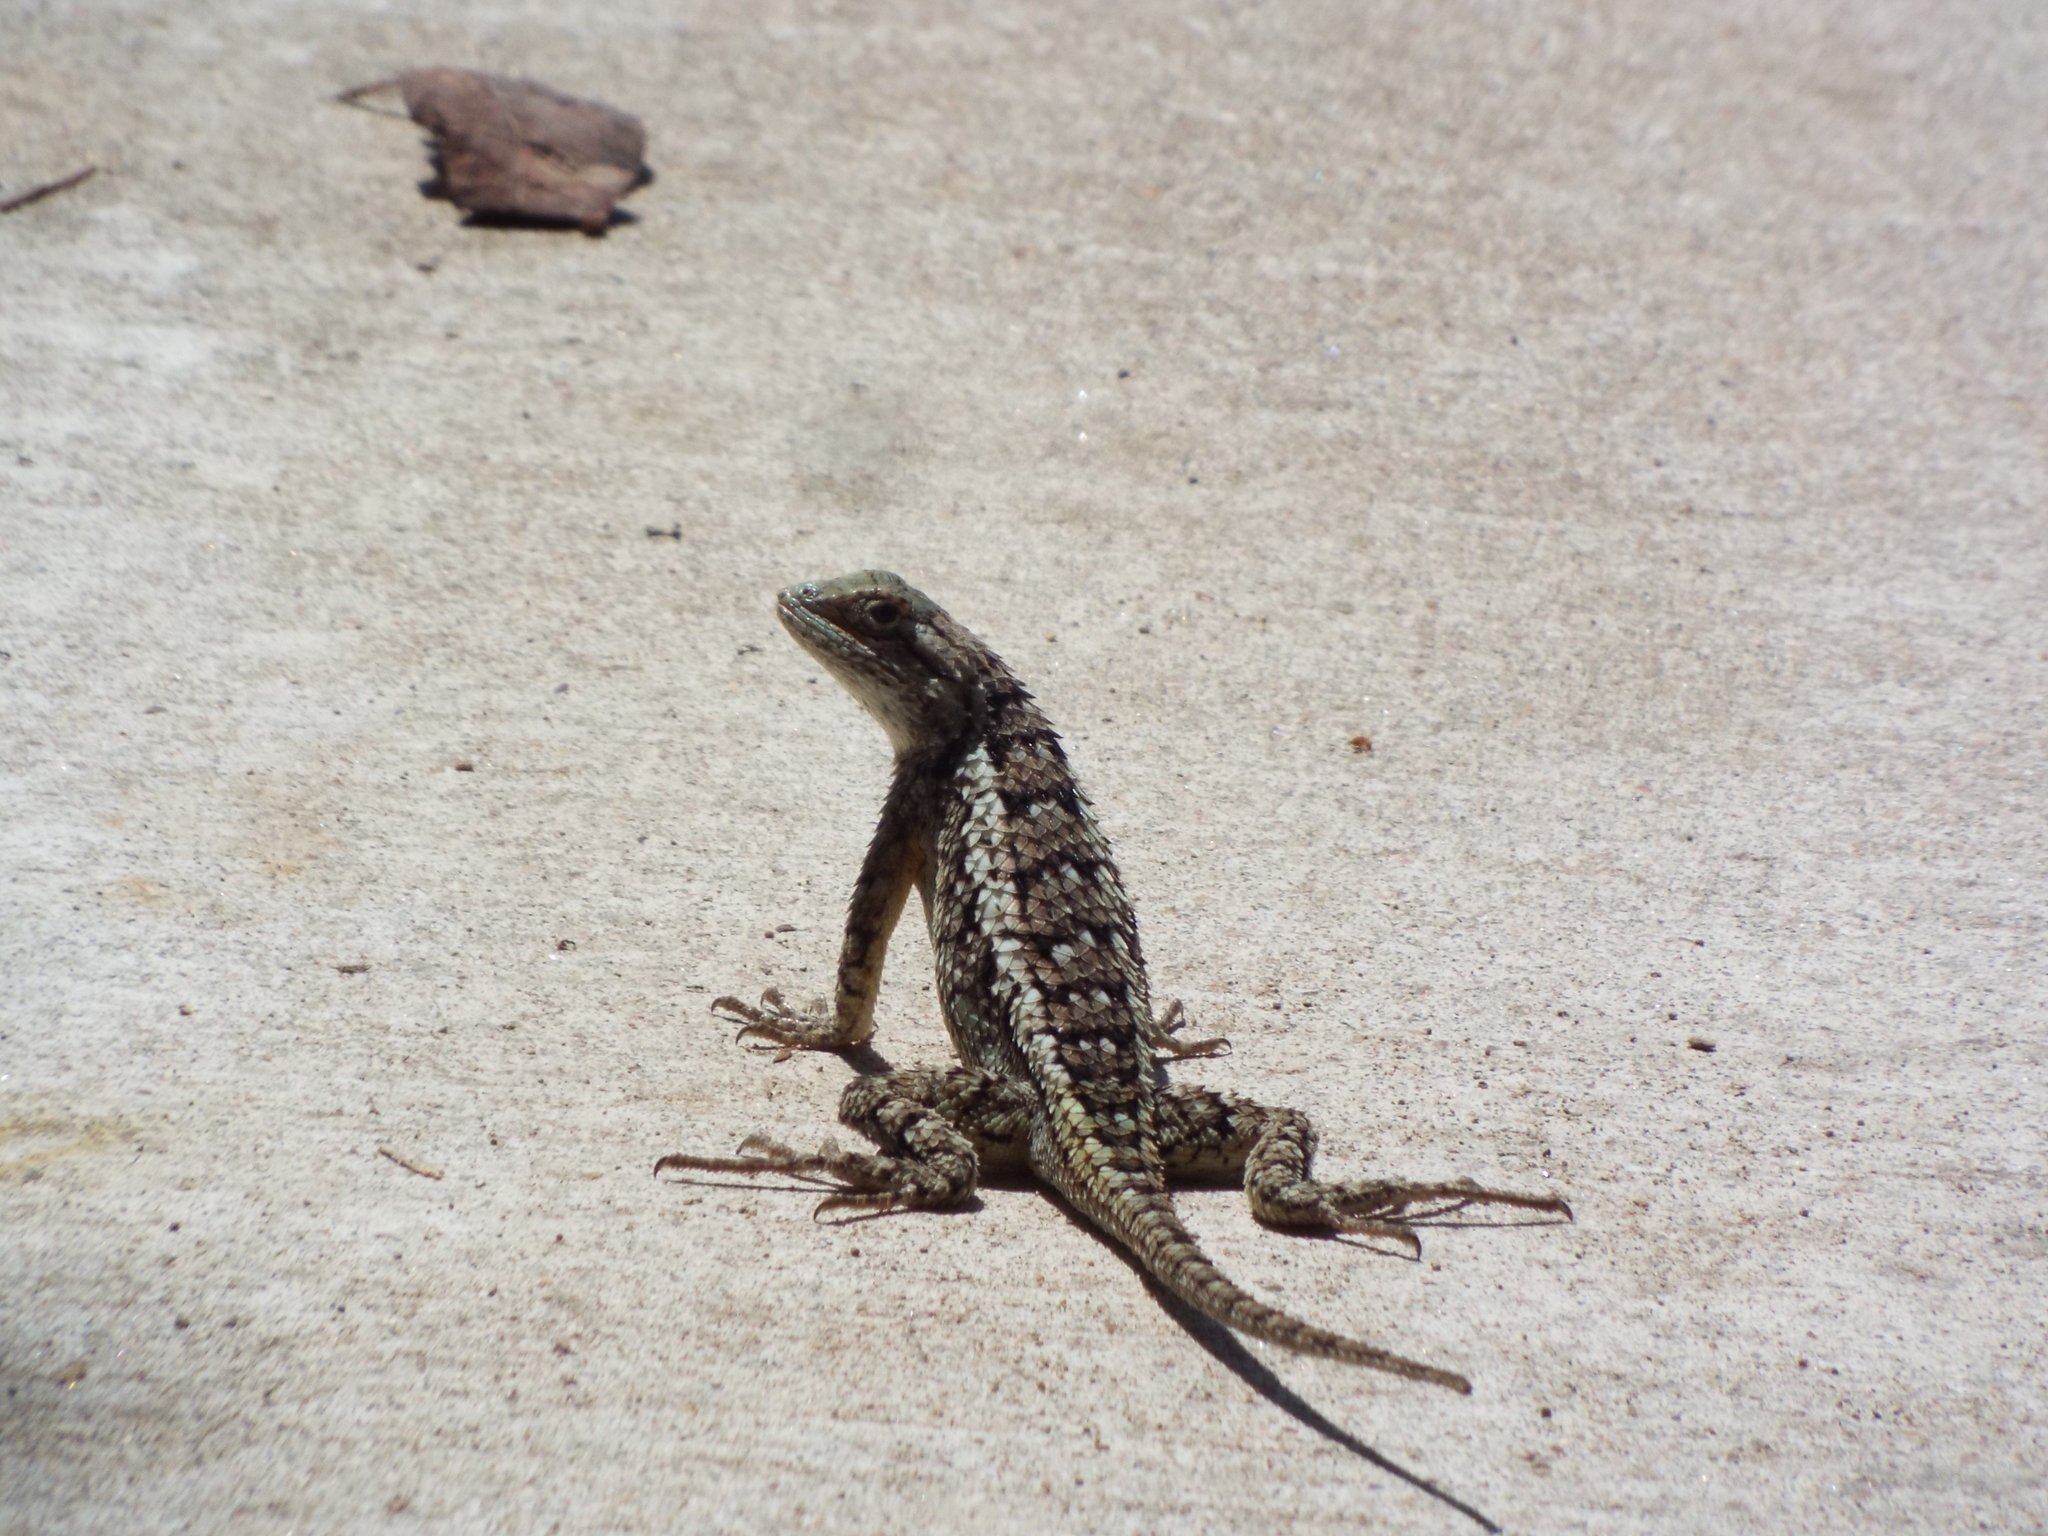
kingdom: Animalia
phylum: Chordata
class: Squamata
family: Phrynosomatidae
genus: Sceloporus
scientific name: Sceloporus olivaceus
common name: Texas spiny lizard
